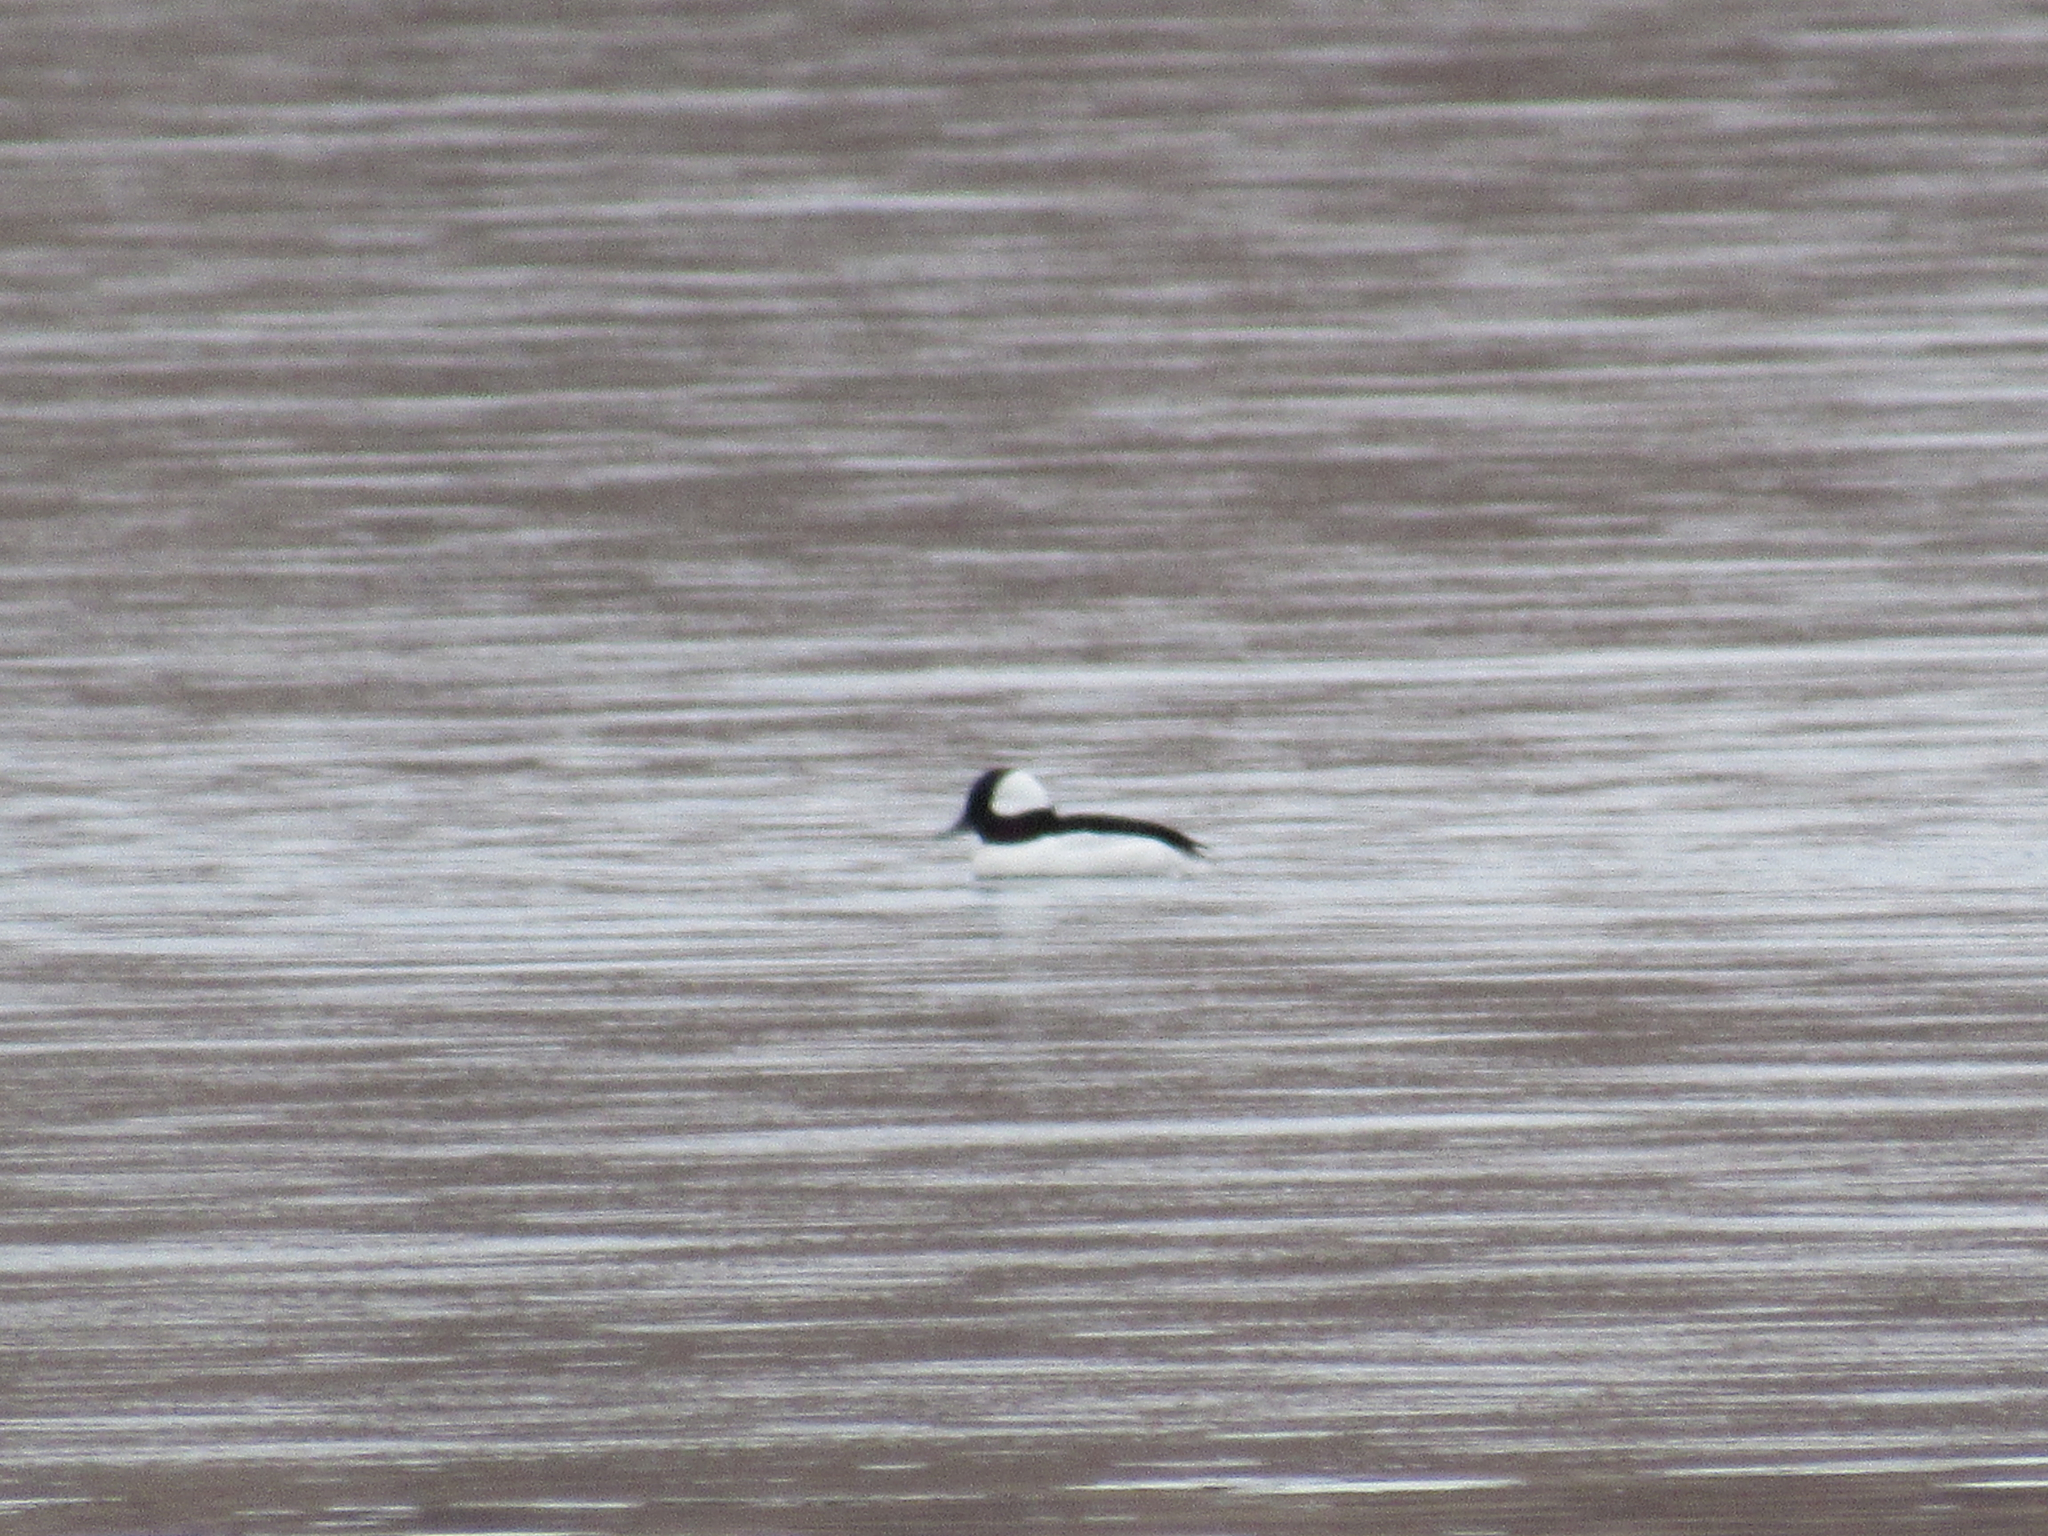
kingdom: Animalia
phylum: Chordata
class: Aves
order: Anseriformes
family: Anatidae
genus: Bucephala
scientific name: Bucephala albeola
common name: Bufflehead
